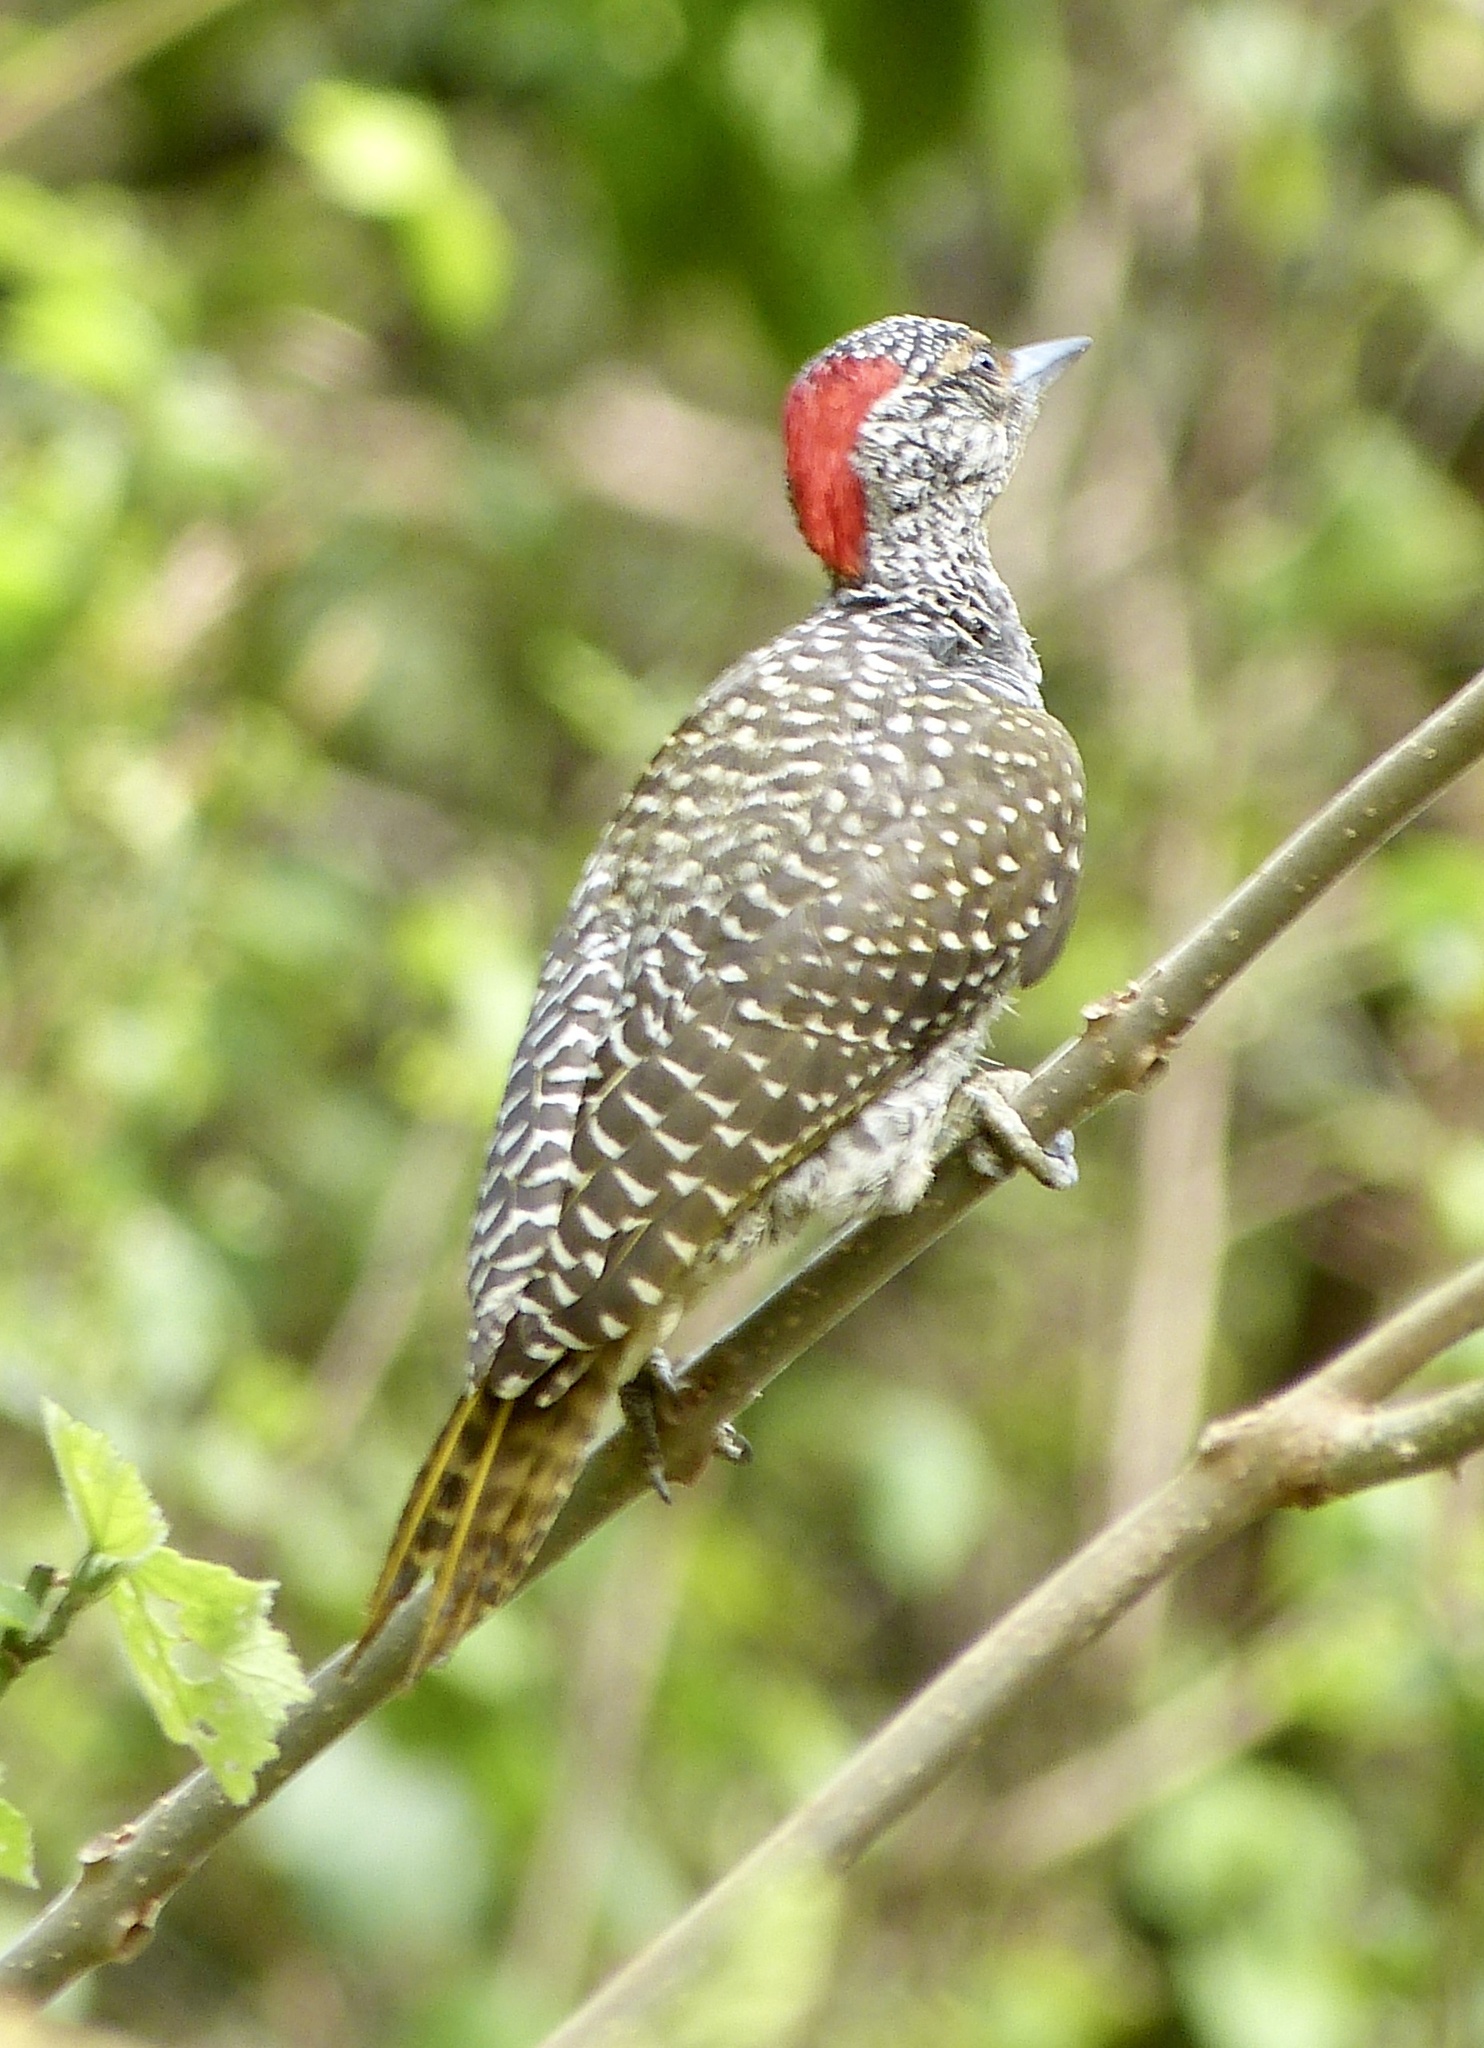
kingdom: Animalia
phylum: Chordata
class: Aves
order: Piciformes
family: Picidae
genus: Campethera
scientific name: Campethera nubica
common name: Nubian woodpecker
